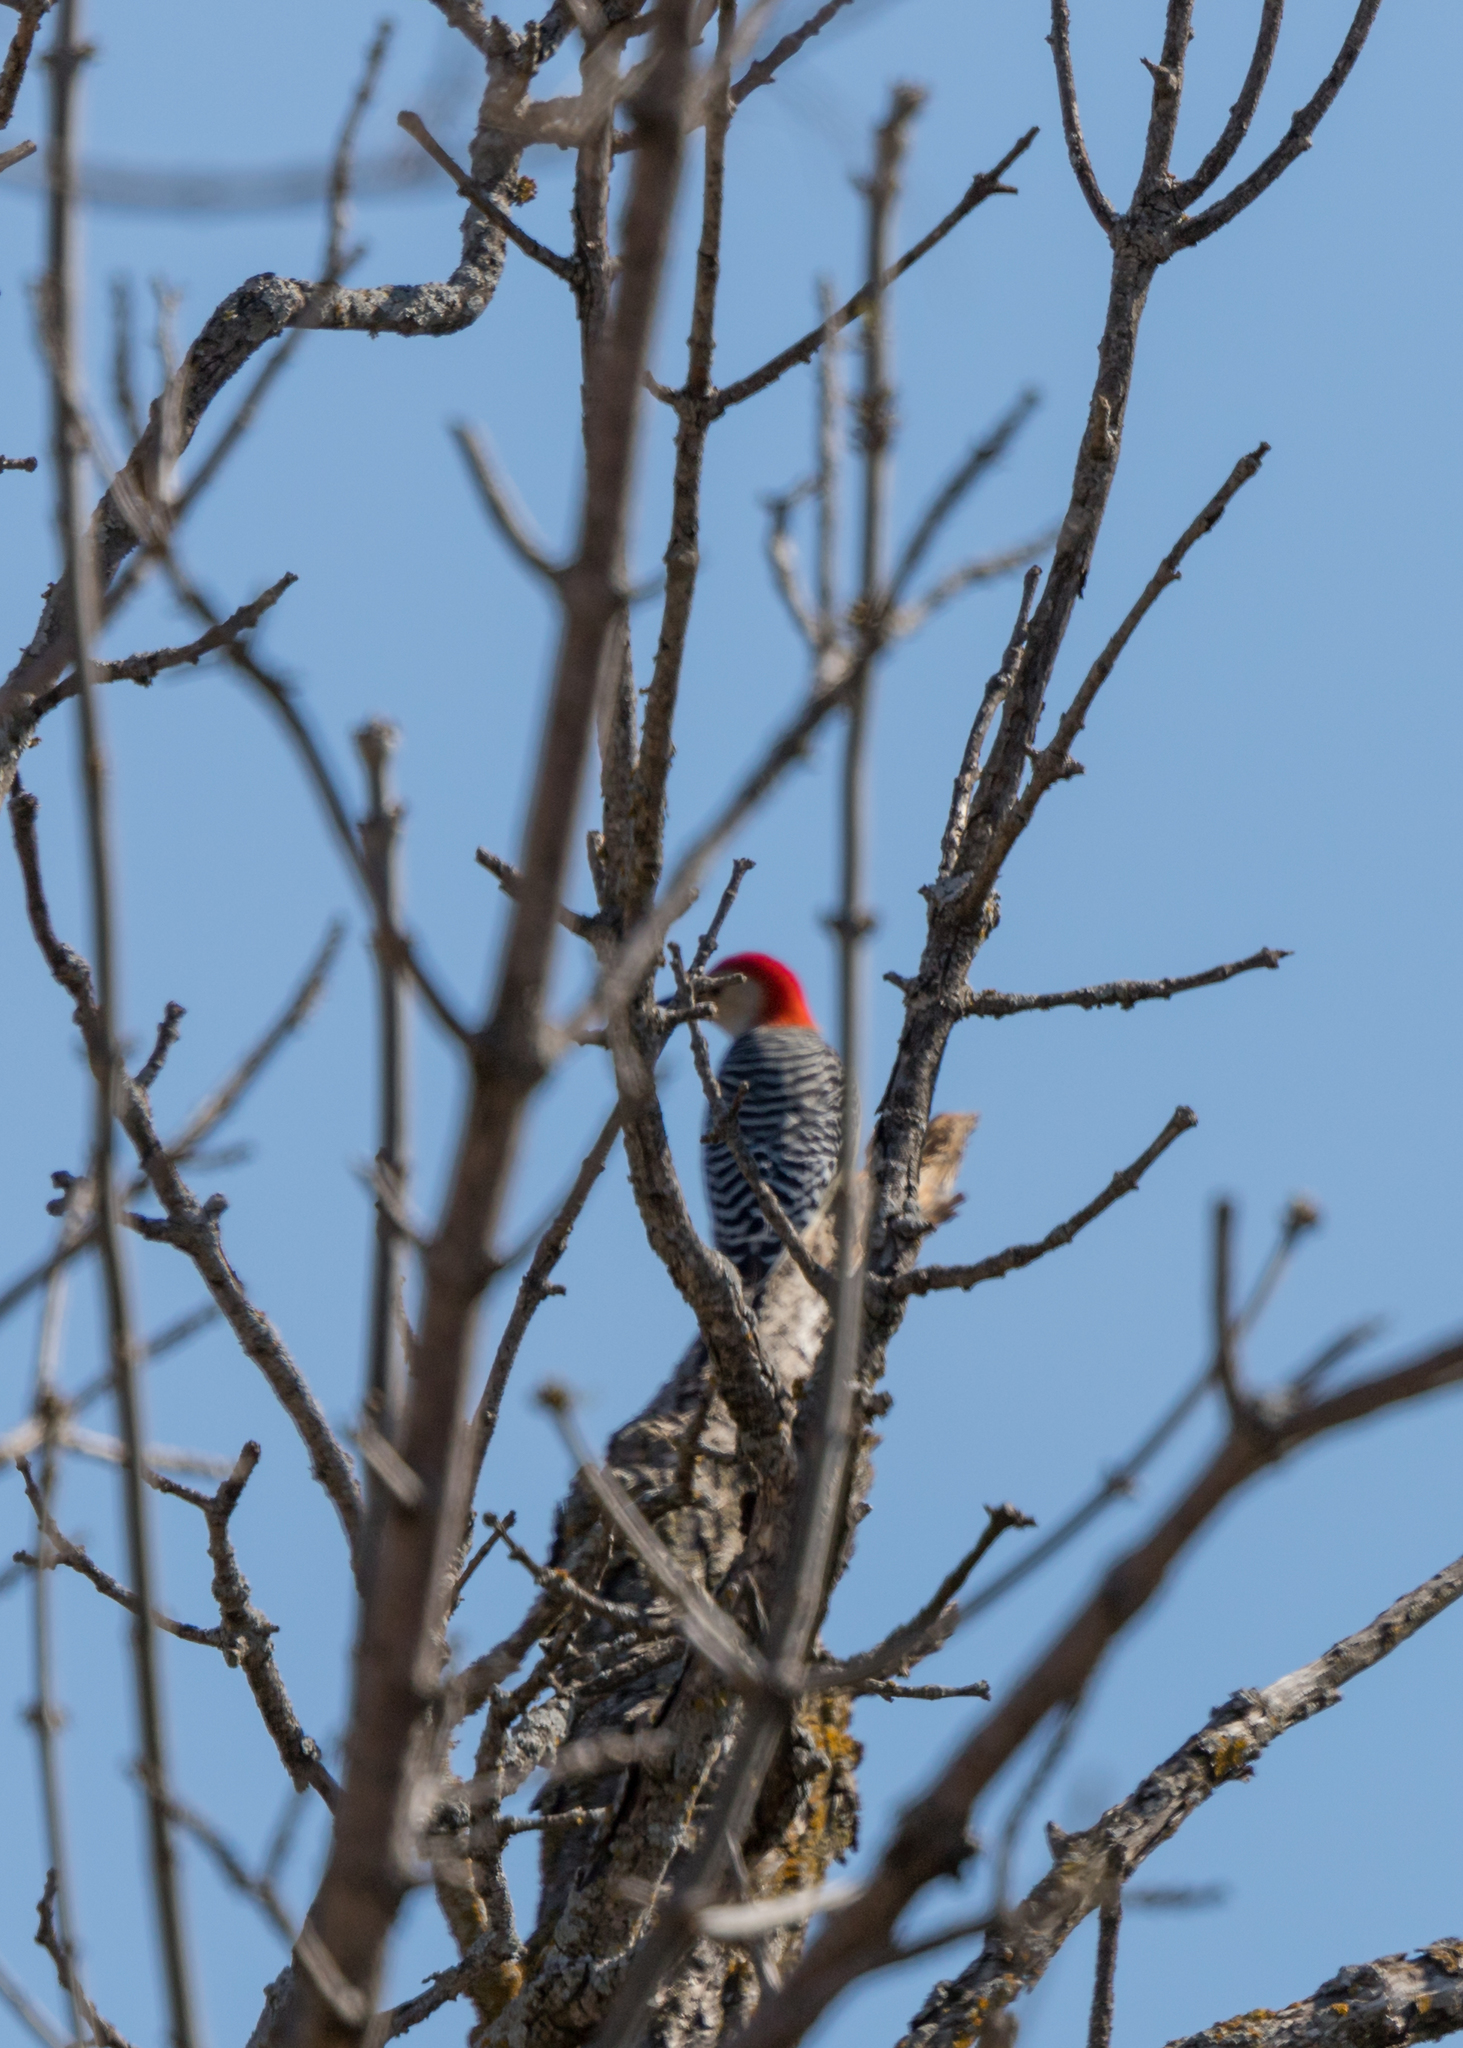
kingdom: Animalia
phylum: Chordata
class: Aves
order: Piciformes
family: Picidae
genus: Melanerpes
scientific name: Melanerpes carolinus
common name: Red-bellied woodpecker
